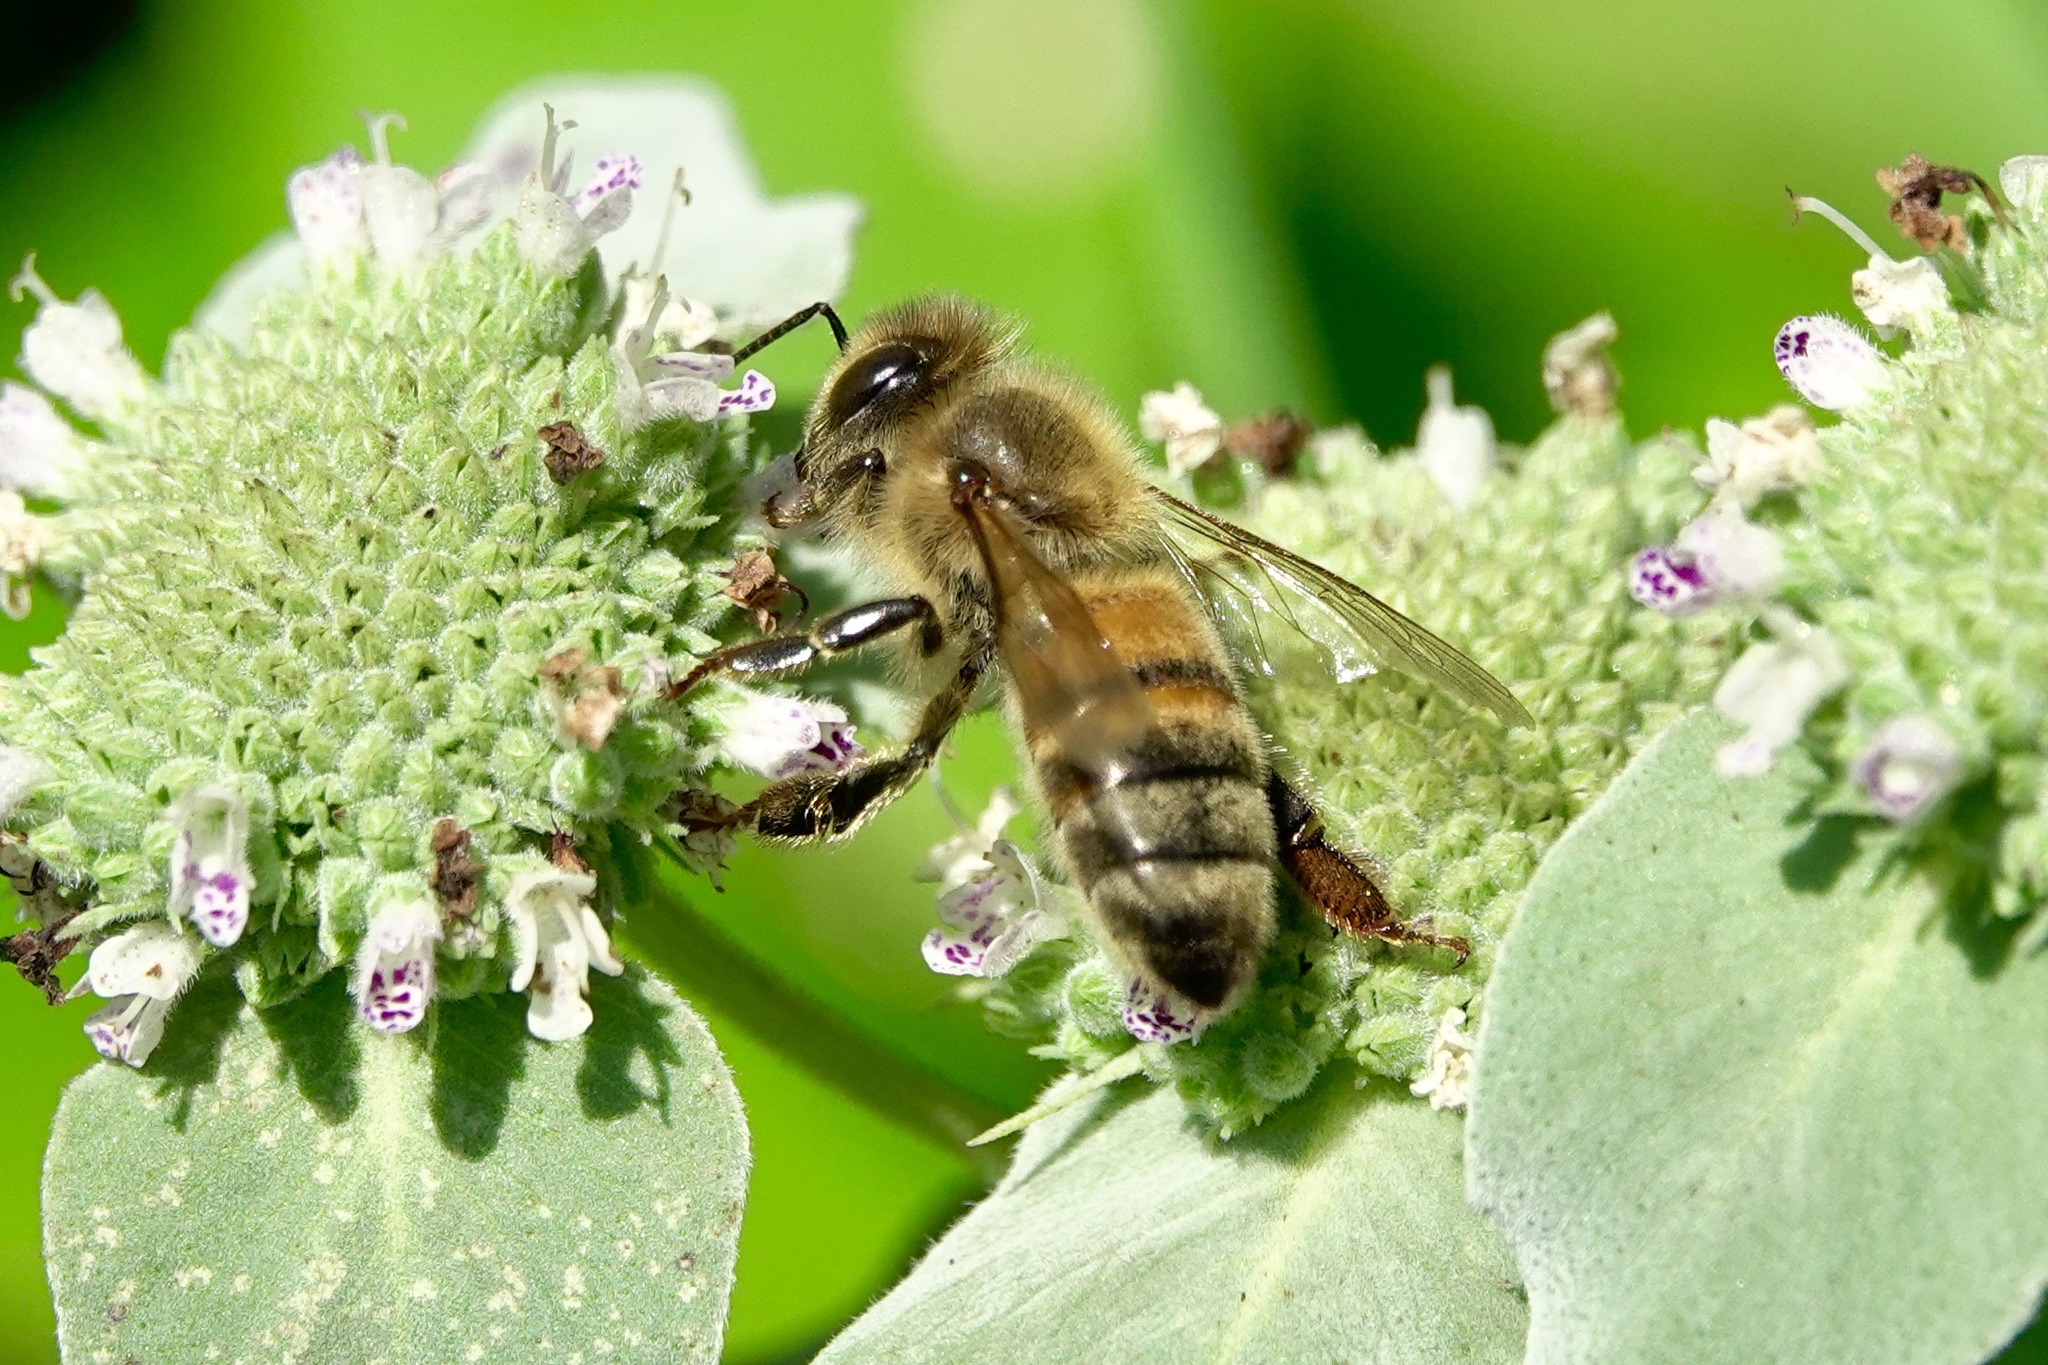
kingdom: Animalia
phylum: Arthropoda
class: Insecta
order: Hymenoptera
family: Apidae
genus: Apis
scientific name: Apis mellifera
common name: Honey bee
